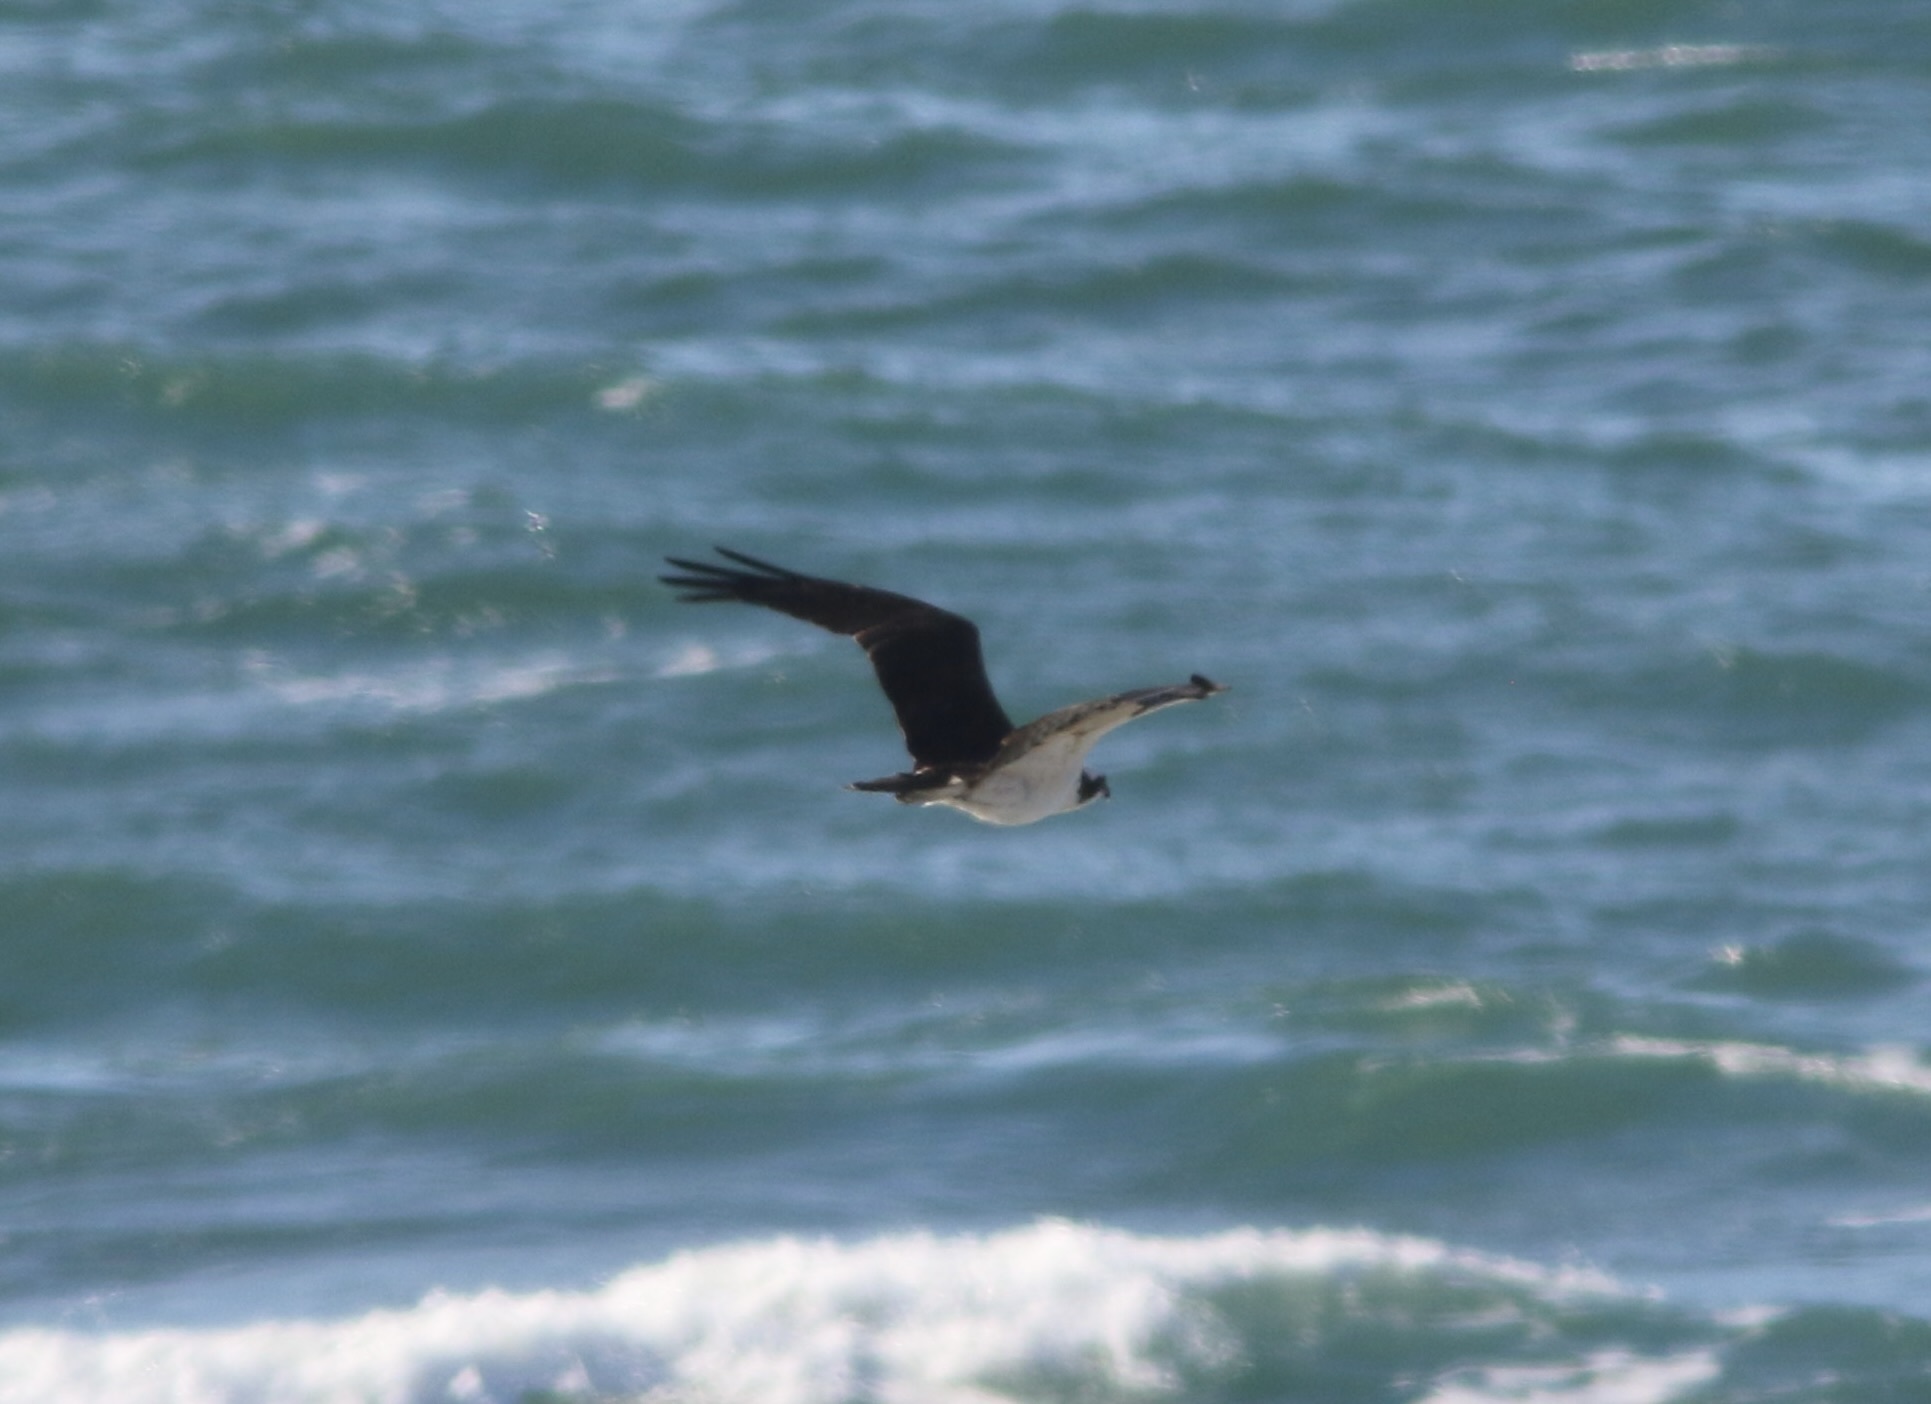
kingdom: Animalia
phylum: Chordata
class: Aves
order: Accipitriformes
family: Pandionidae
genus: Pandion
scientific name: Pandion haliaetus
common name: Osprey
